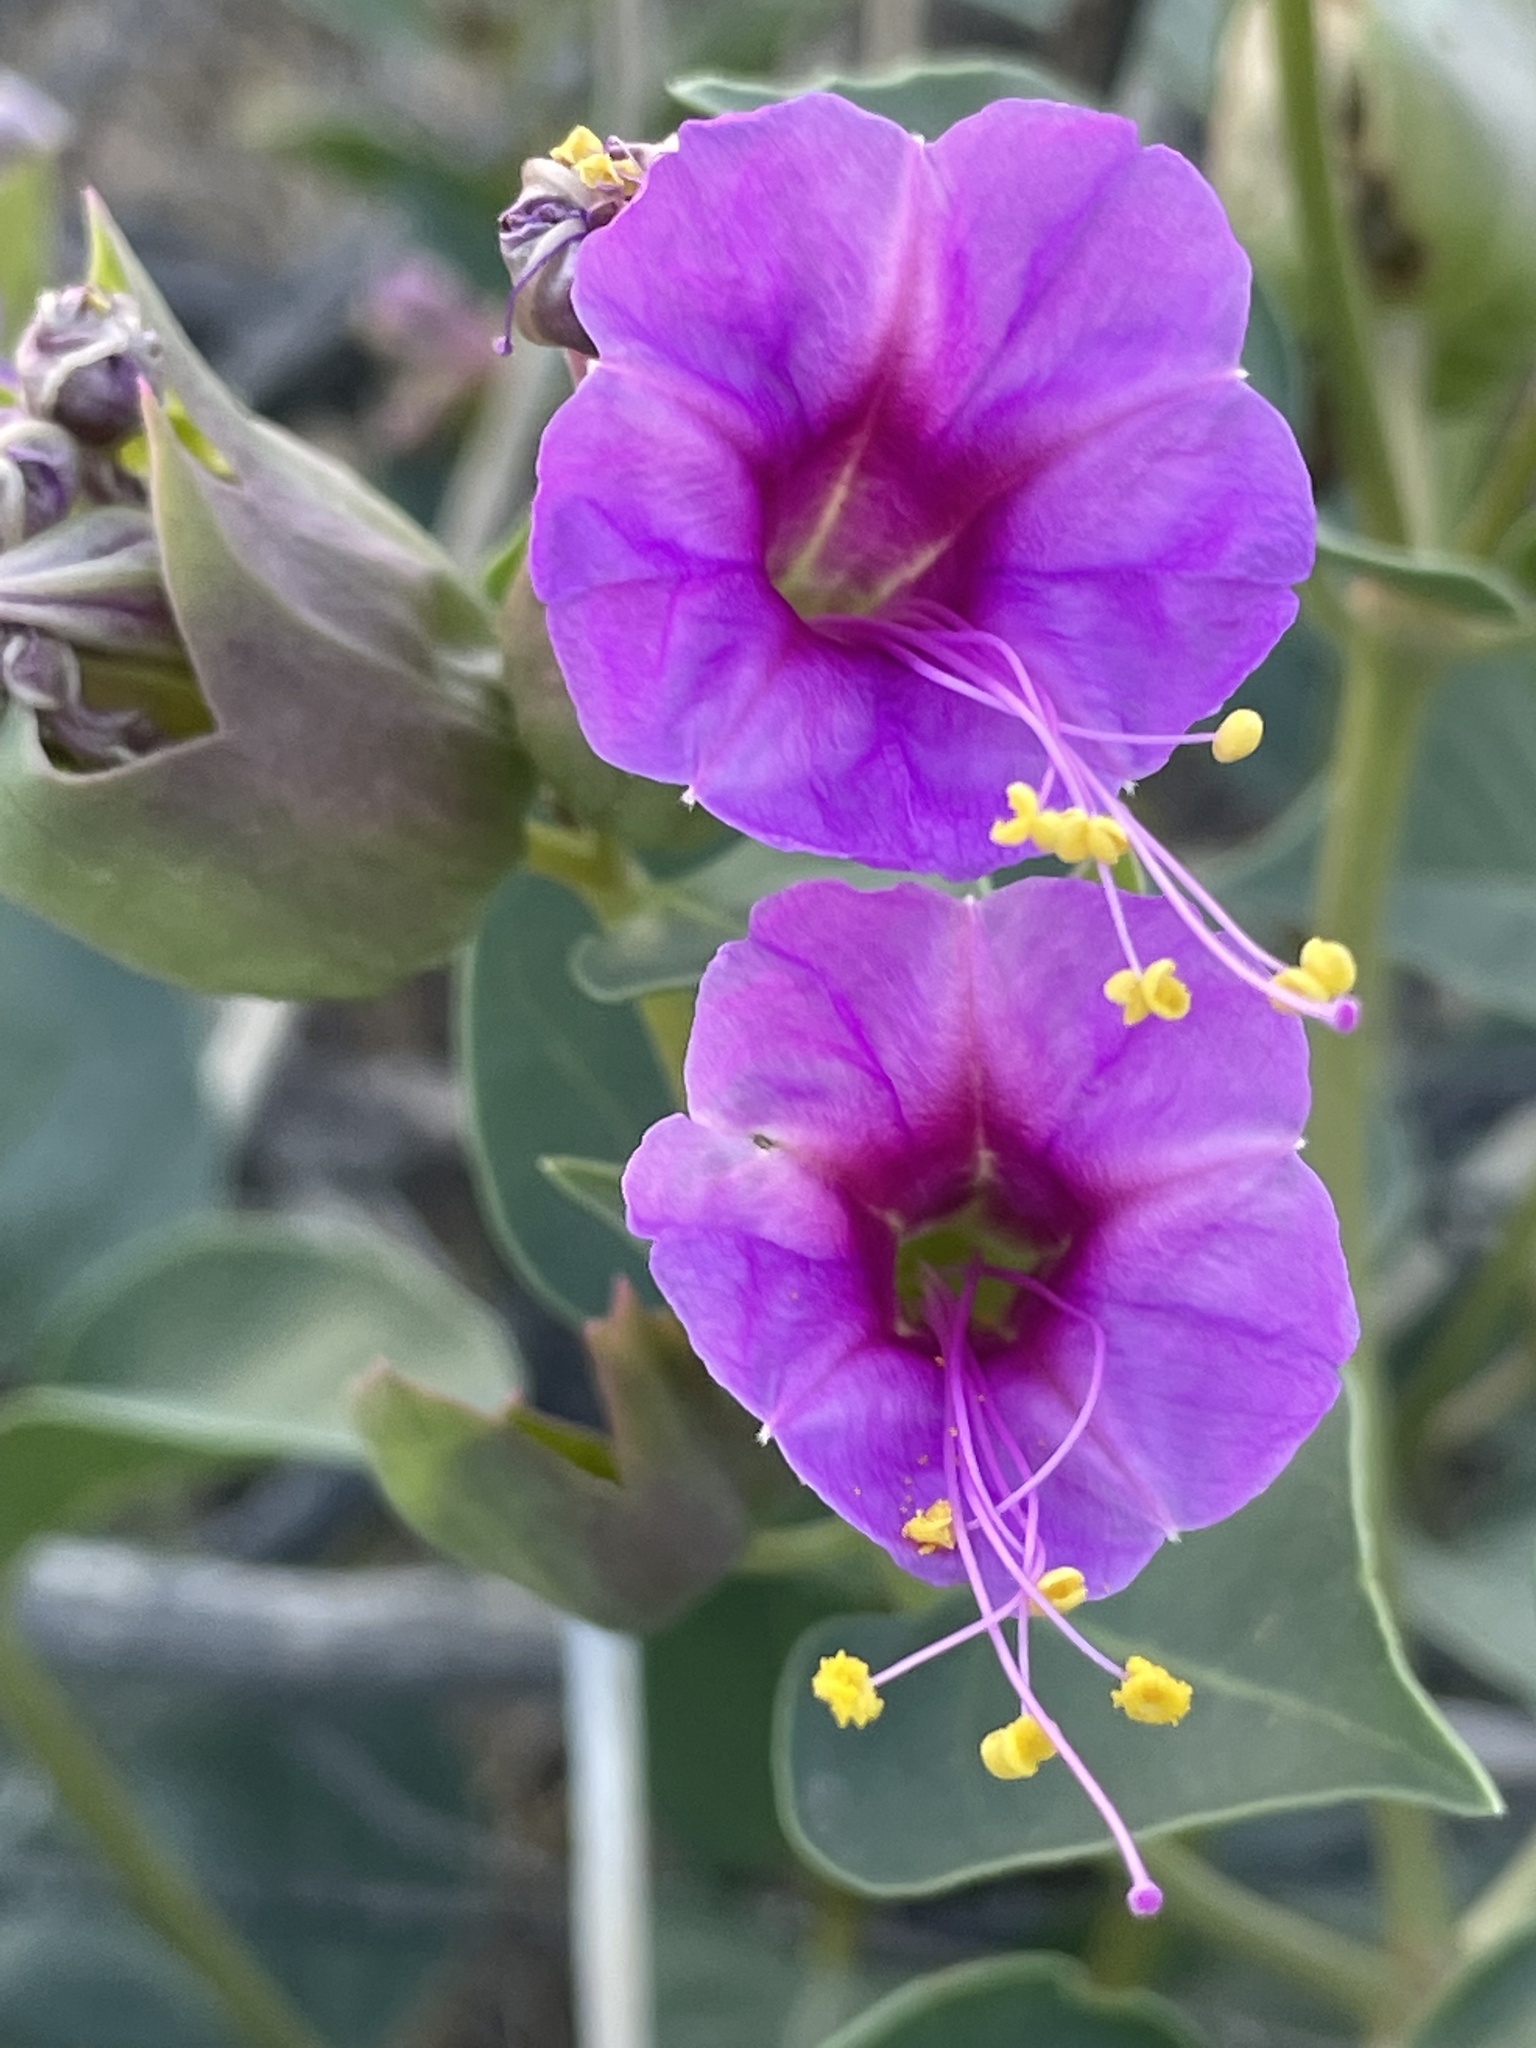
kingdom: Plantae
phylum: Tracheophyta
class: Magnoliopsida
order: Caryophyllales
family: Nyctaginaceae
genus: Mirabilis
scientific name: Mirabilis multiflora
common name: Froebel's four-o'clock
